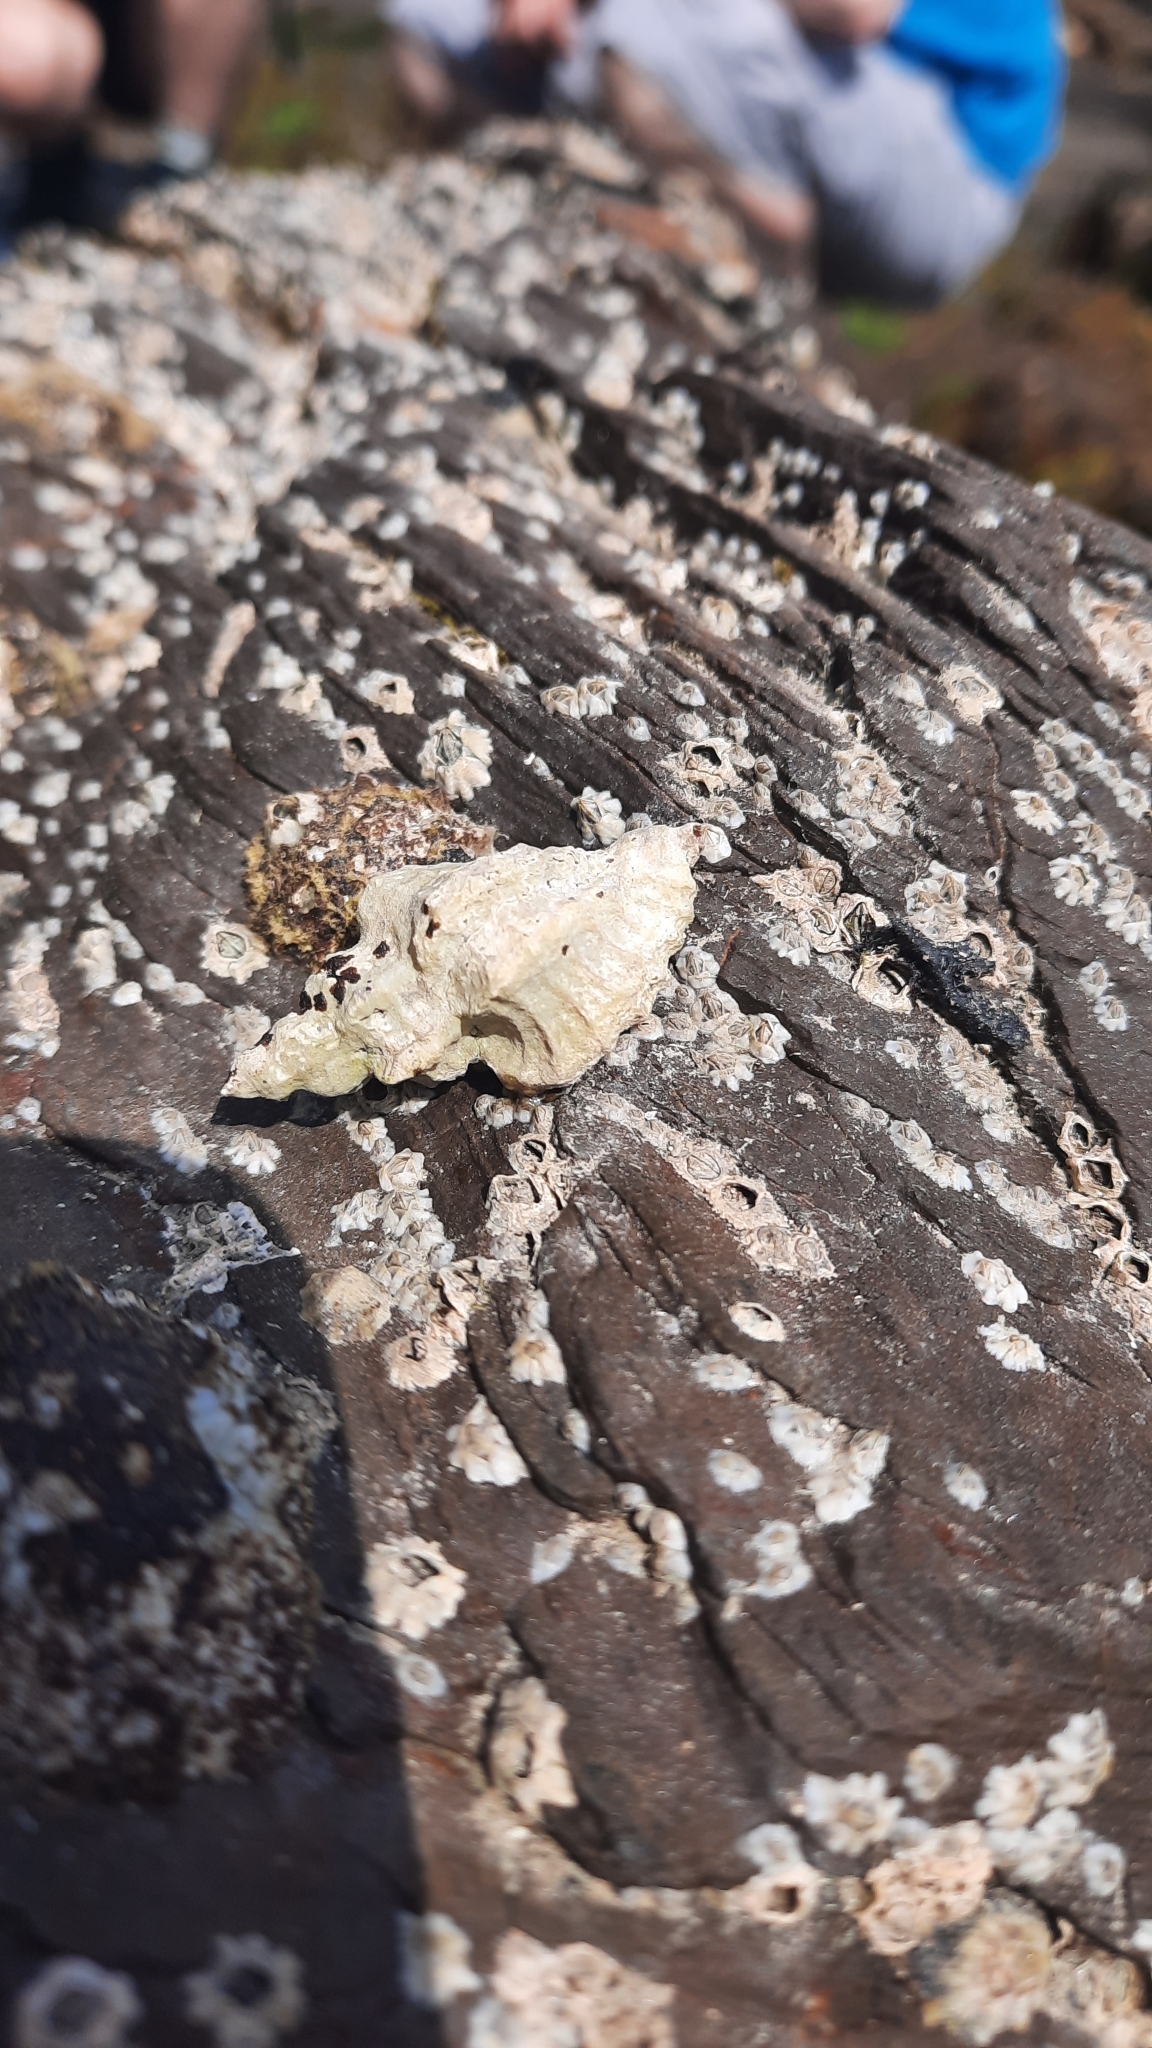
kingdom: Animalia
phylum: Mollusca
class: Gastropoda
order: Neogastropoda
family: Muricidae
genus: Ocenebra
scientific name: Ocenebra erinaceus
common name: European sting winkle
